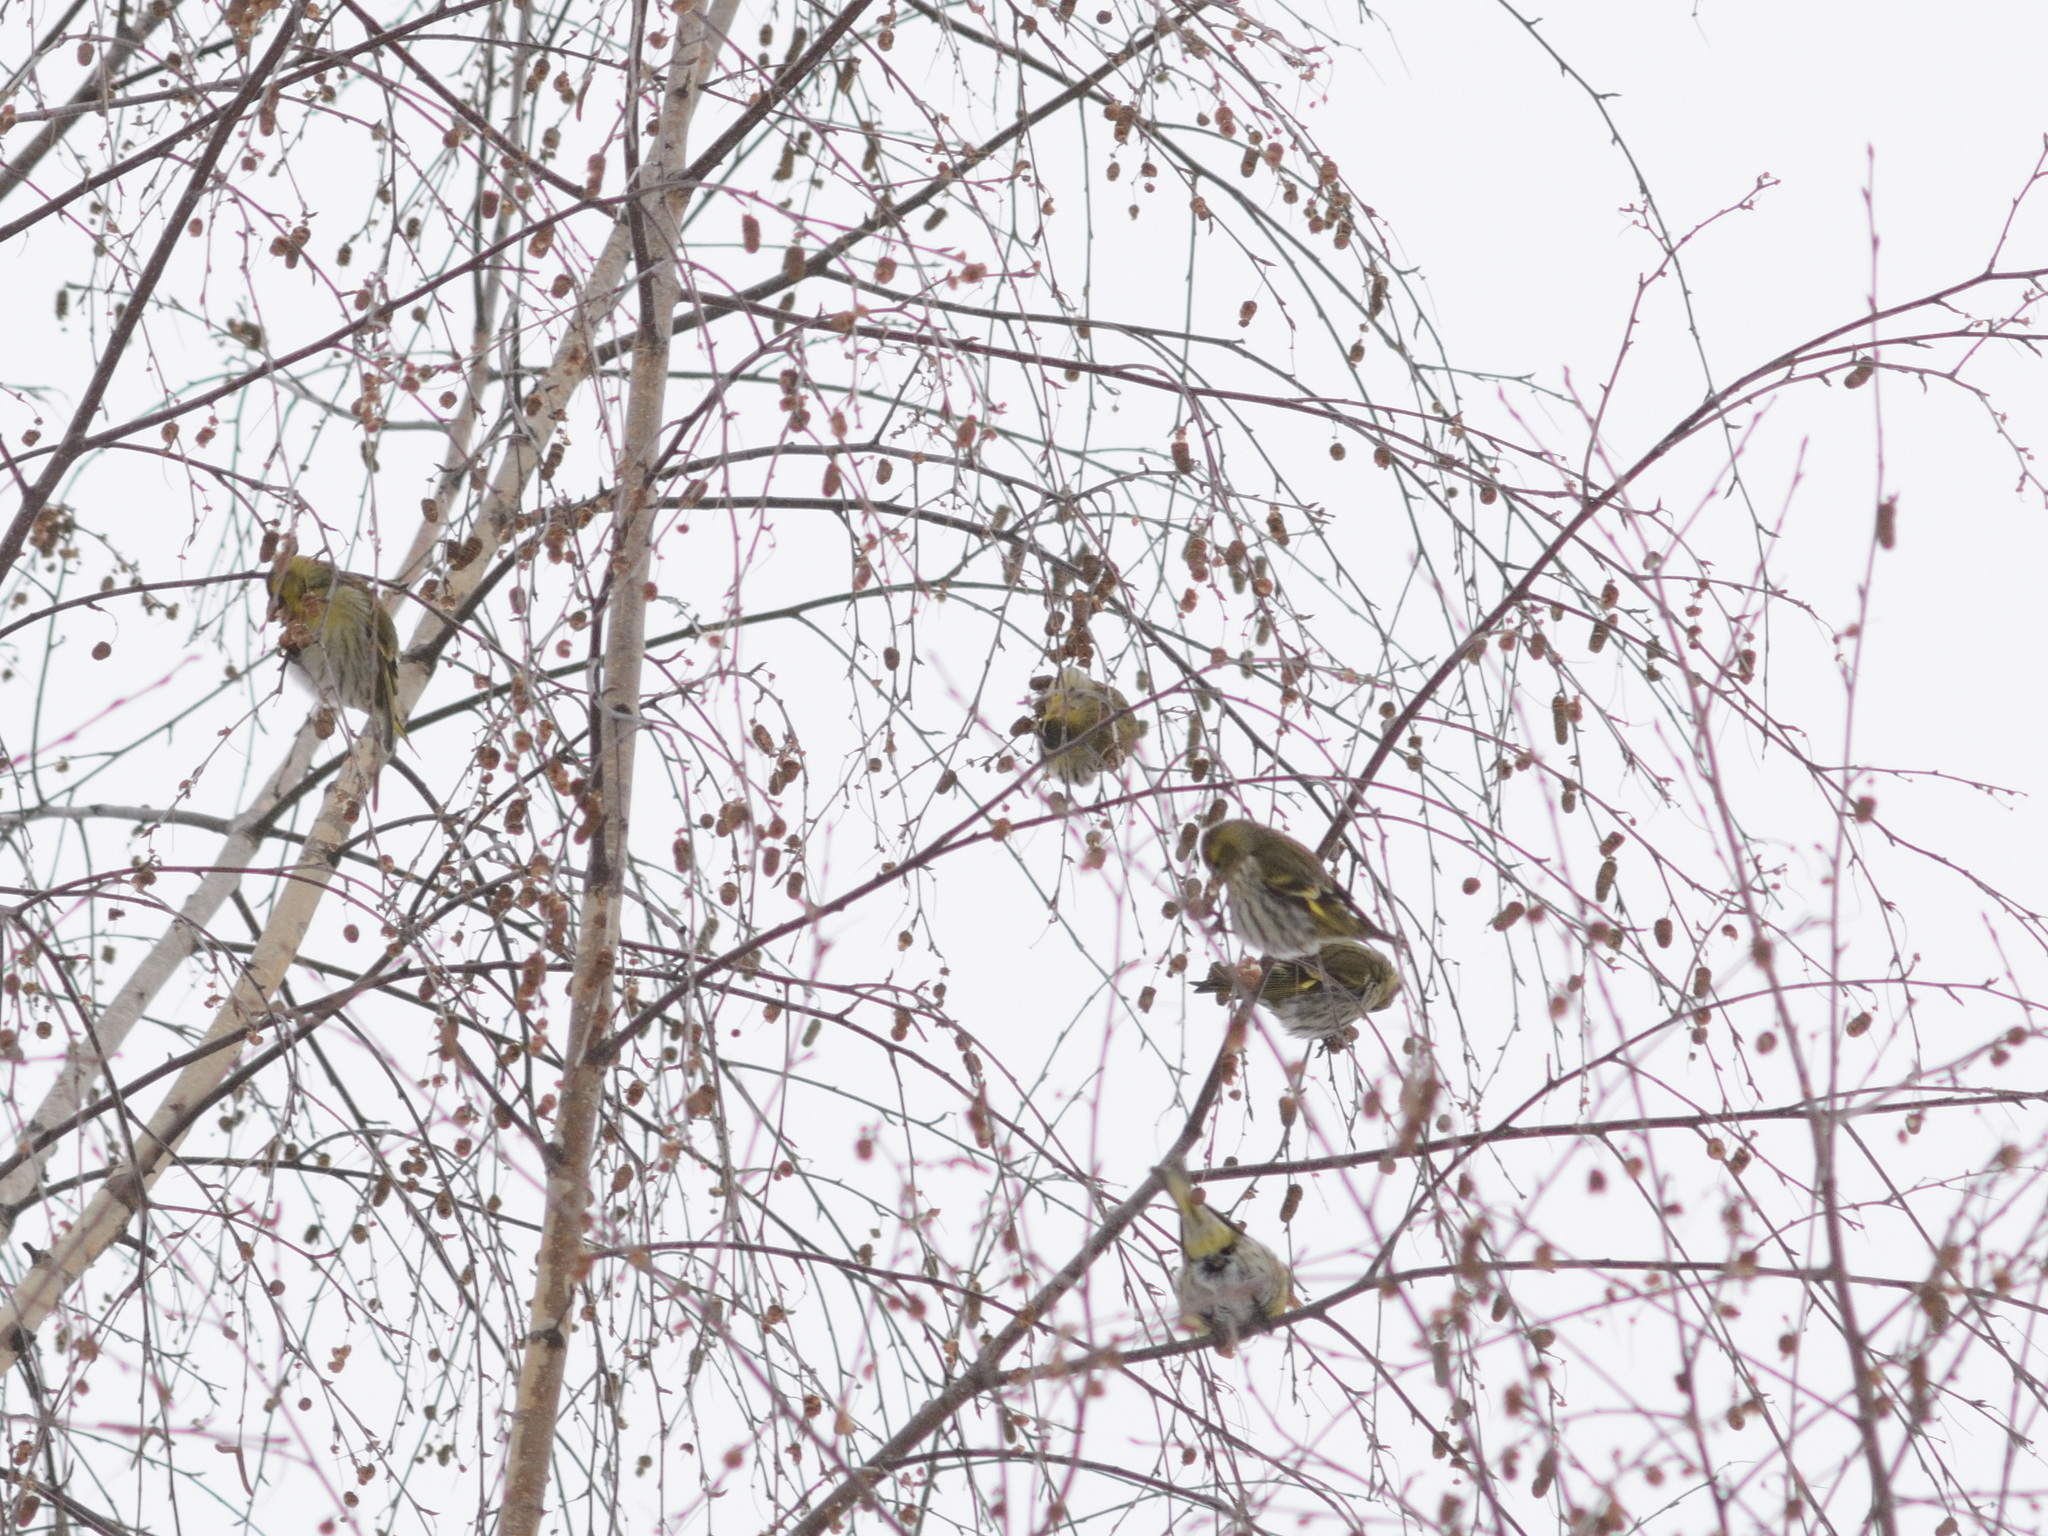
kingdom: Animalia
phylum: Chordata
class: Aves
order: Passeriformes
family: Fringillidae
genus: Spinus
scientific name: Spinus spinus
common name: Eurasian siskin
